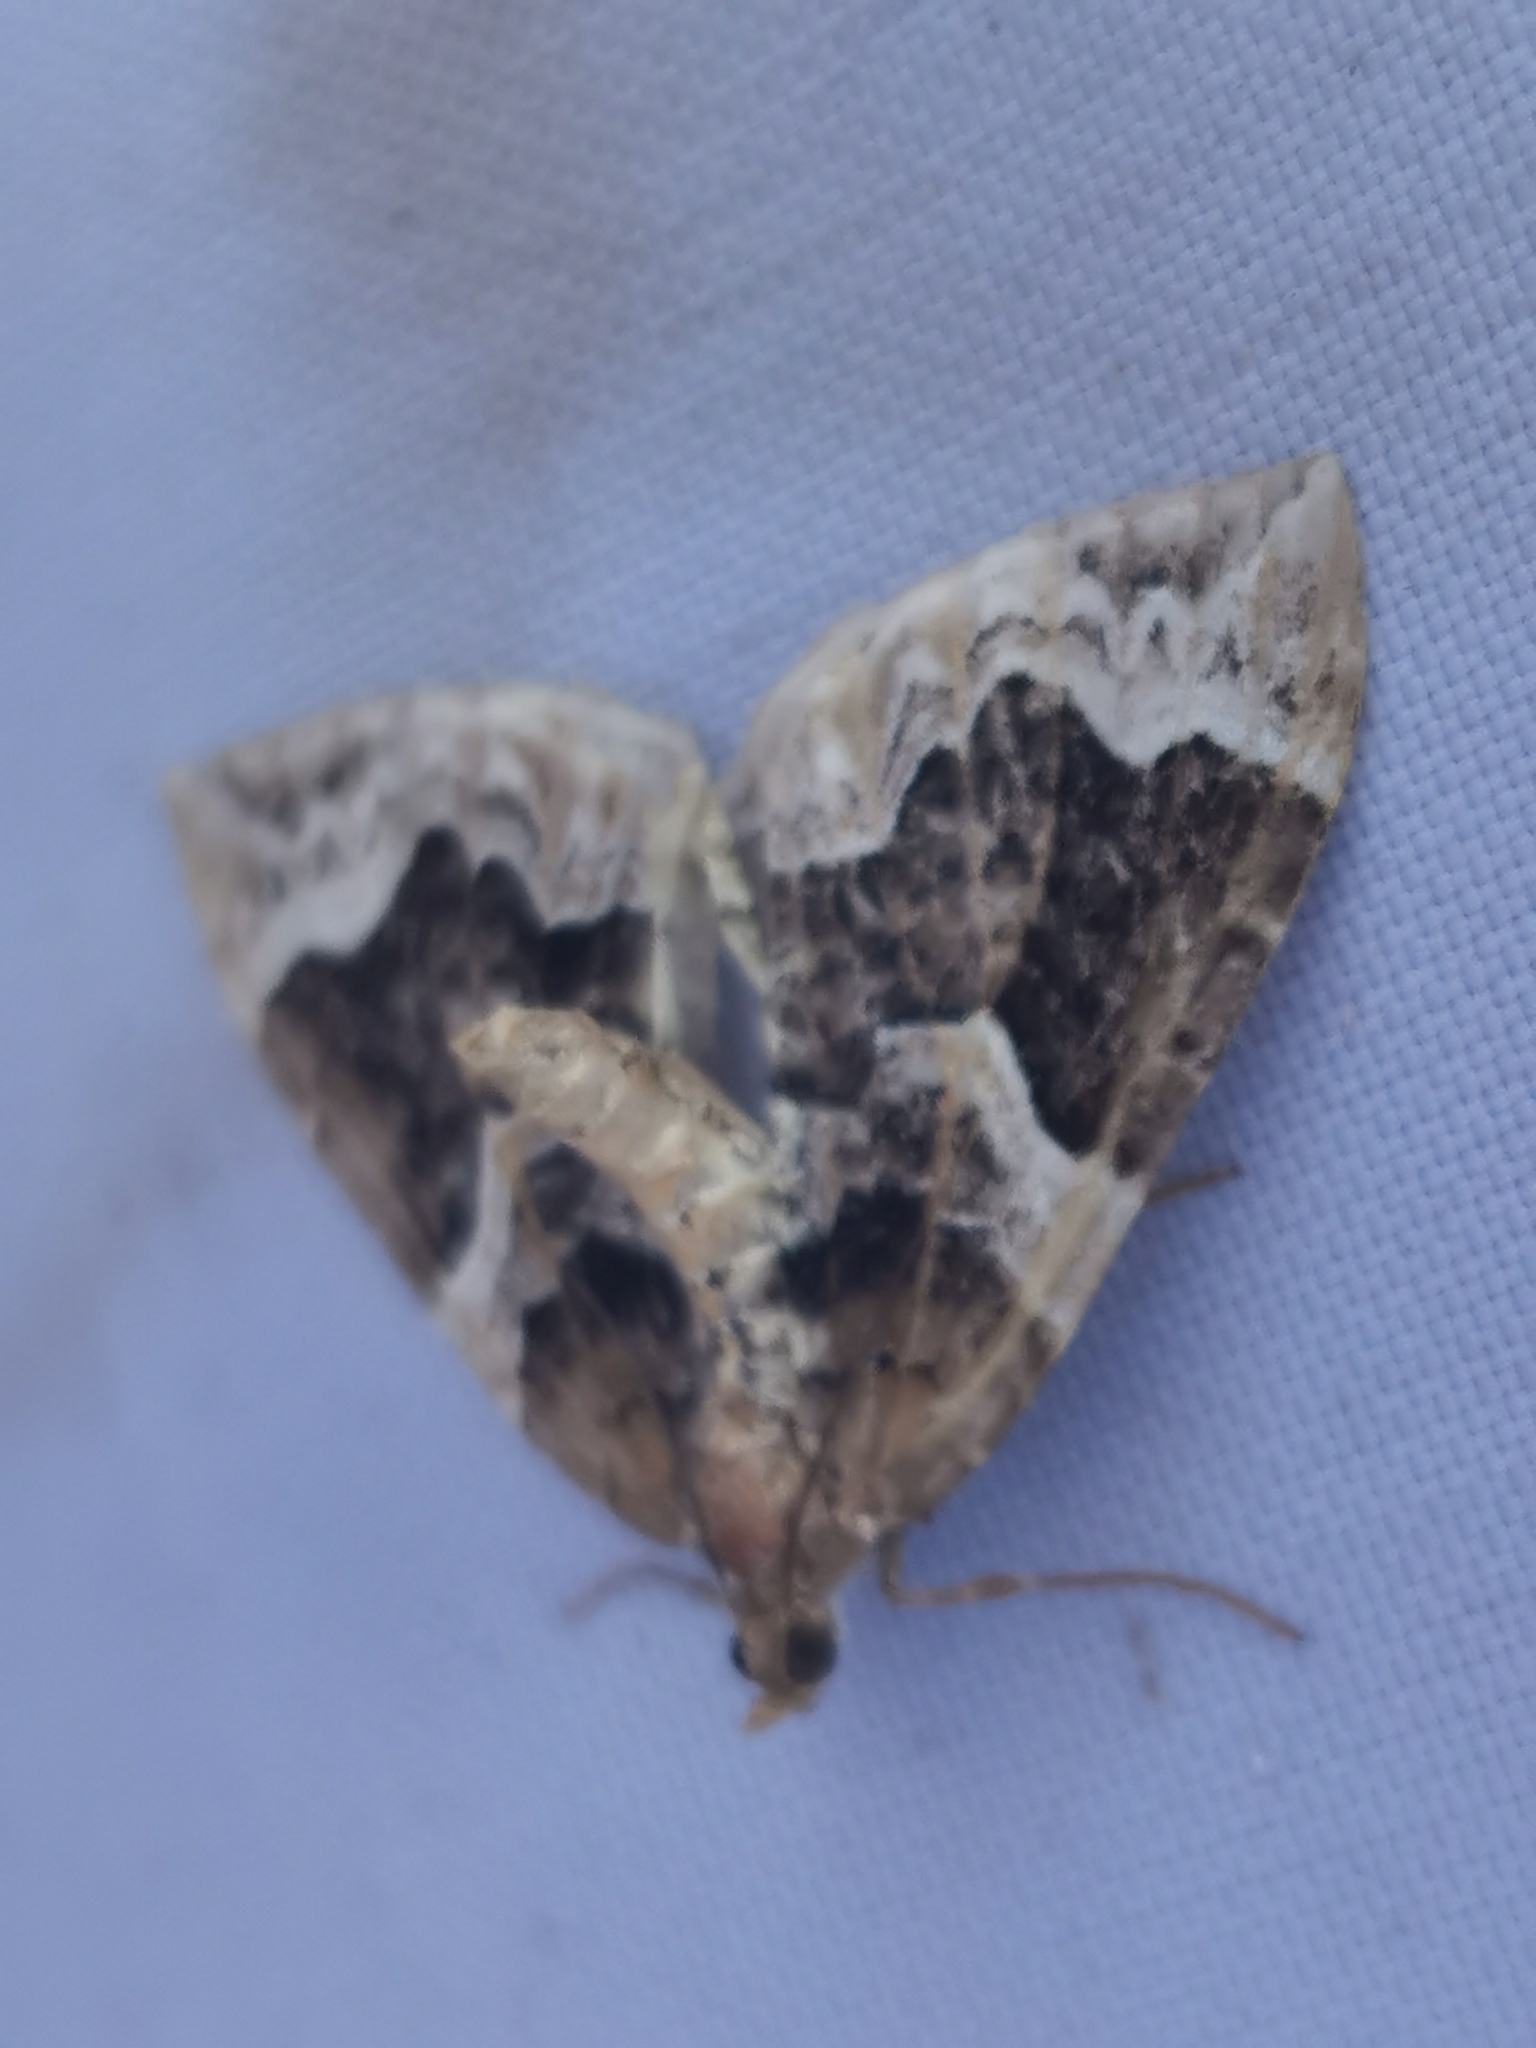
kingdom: Animalia
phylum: Arthropoda
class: Insecta
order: Lepidoptera
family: Geometridae
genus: Eulithis
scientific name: Eulithis prunata
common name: Phoenix
